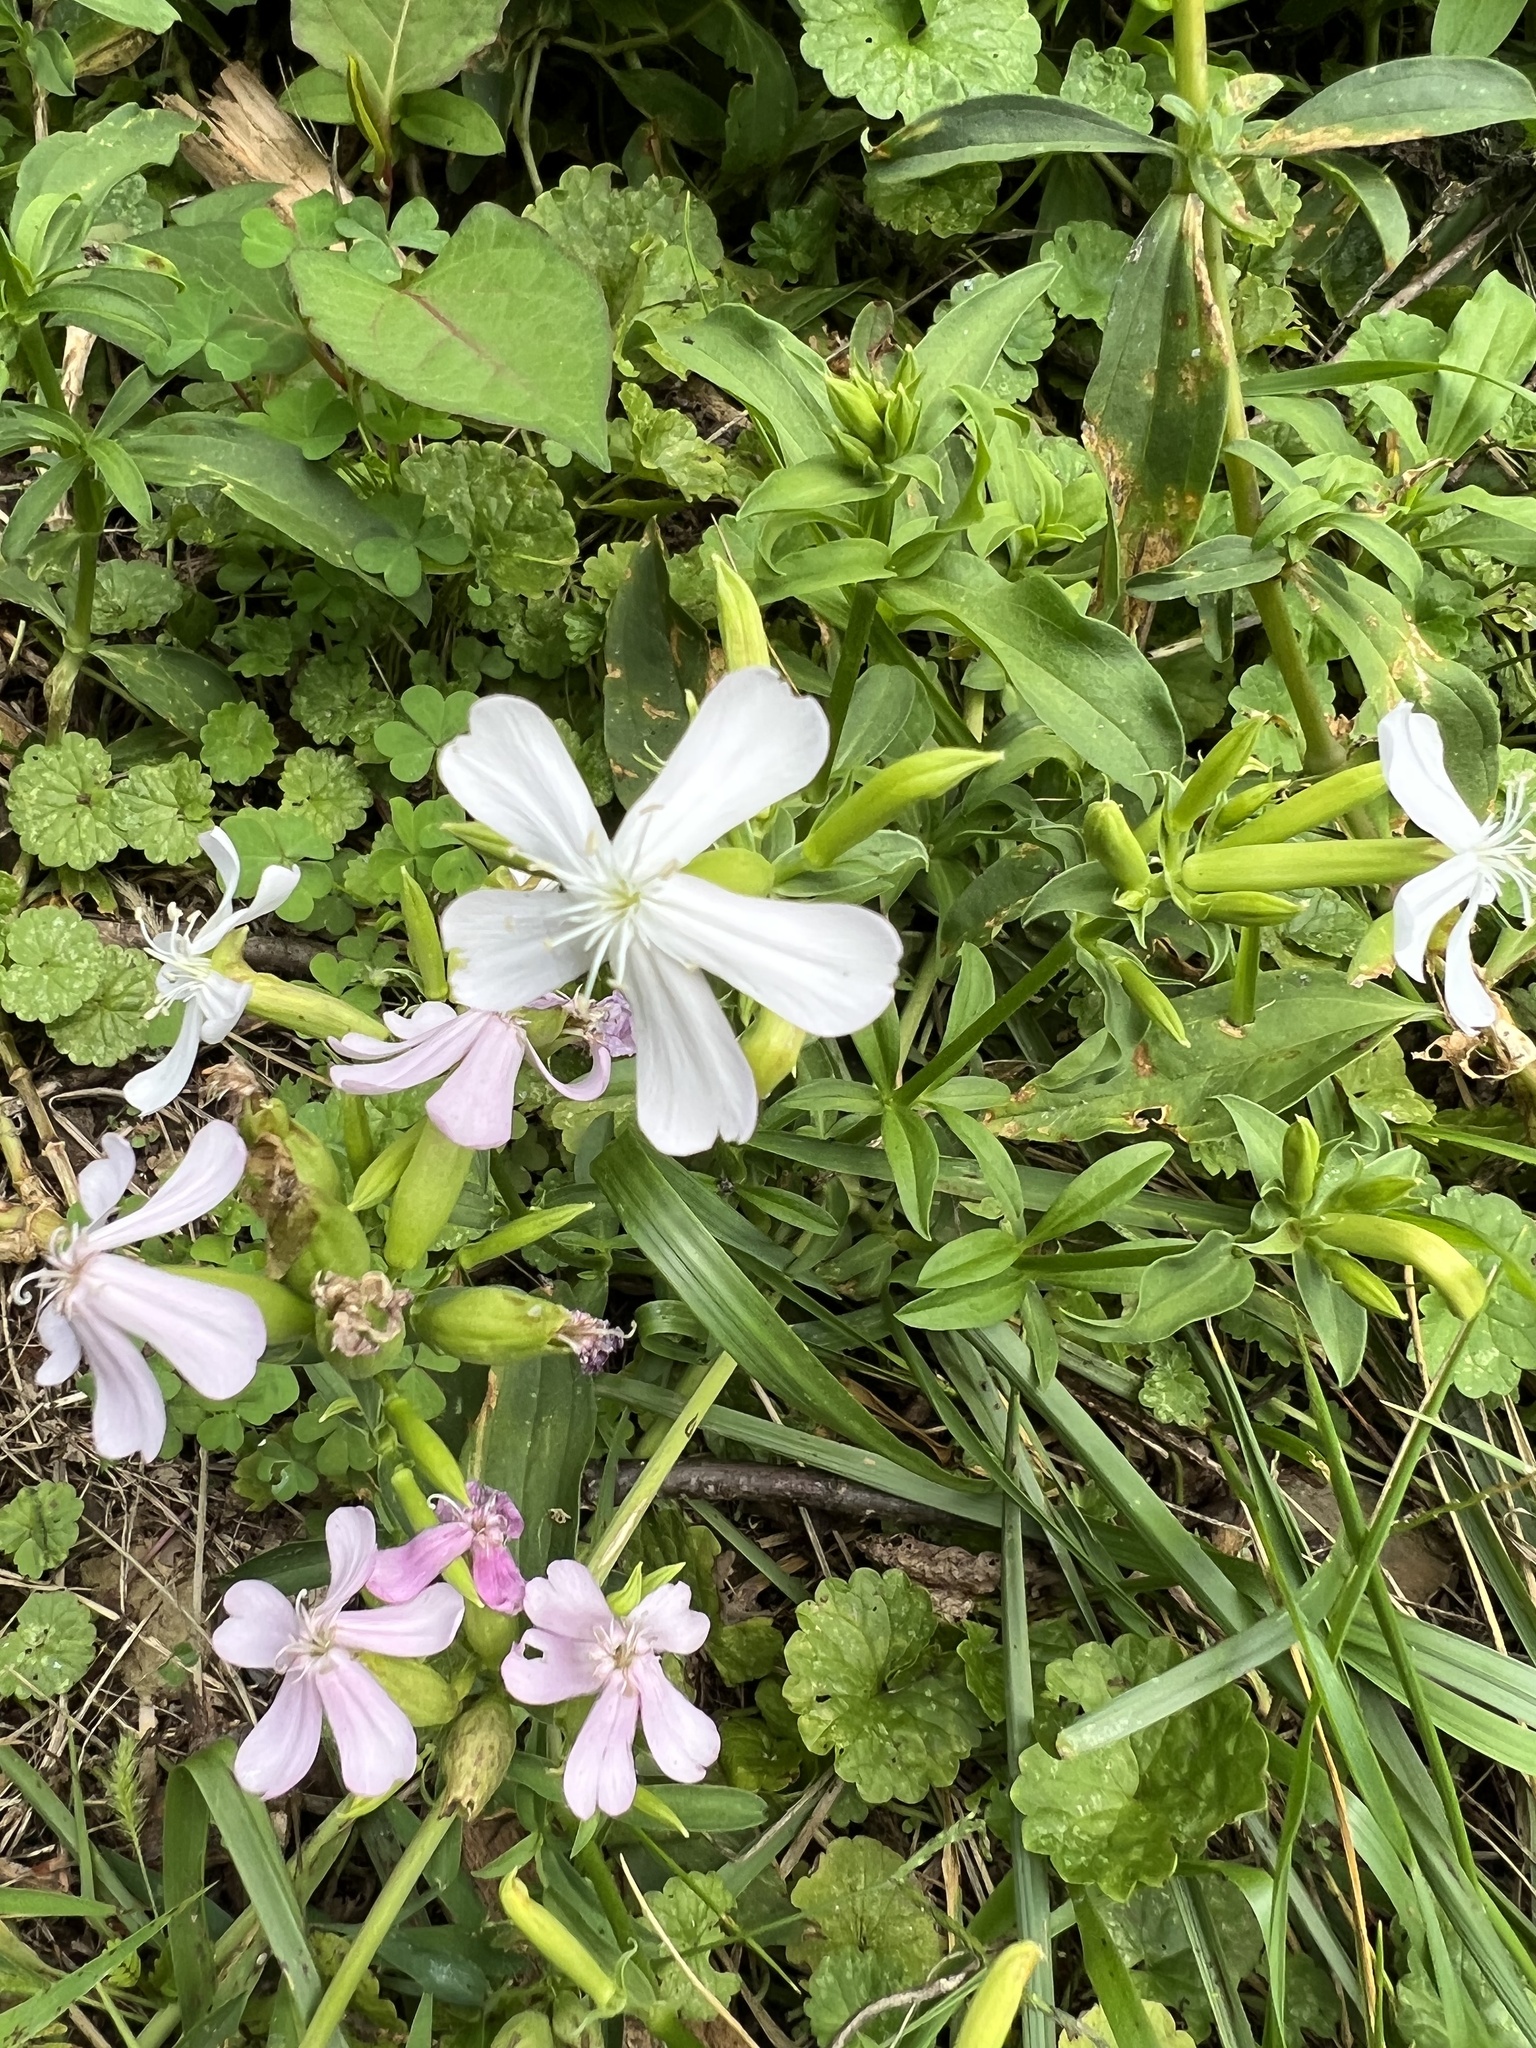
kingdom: Plantae
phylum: Tracheophyta
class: Magnoliopsida
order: Caryophyllales
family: Caryophyllaceae
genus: Saponaria
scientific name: Saponaria officinalis
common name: Soapwort
